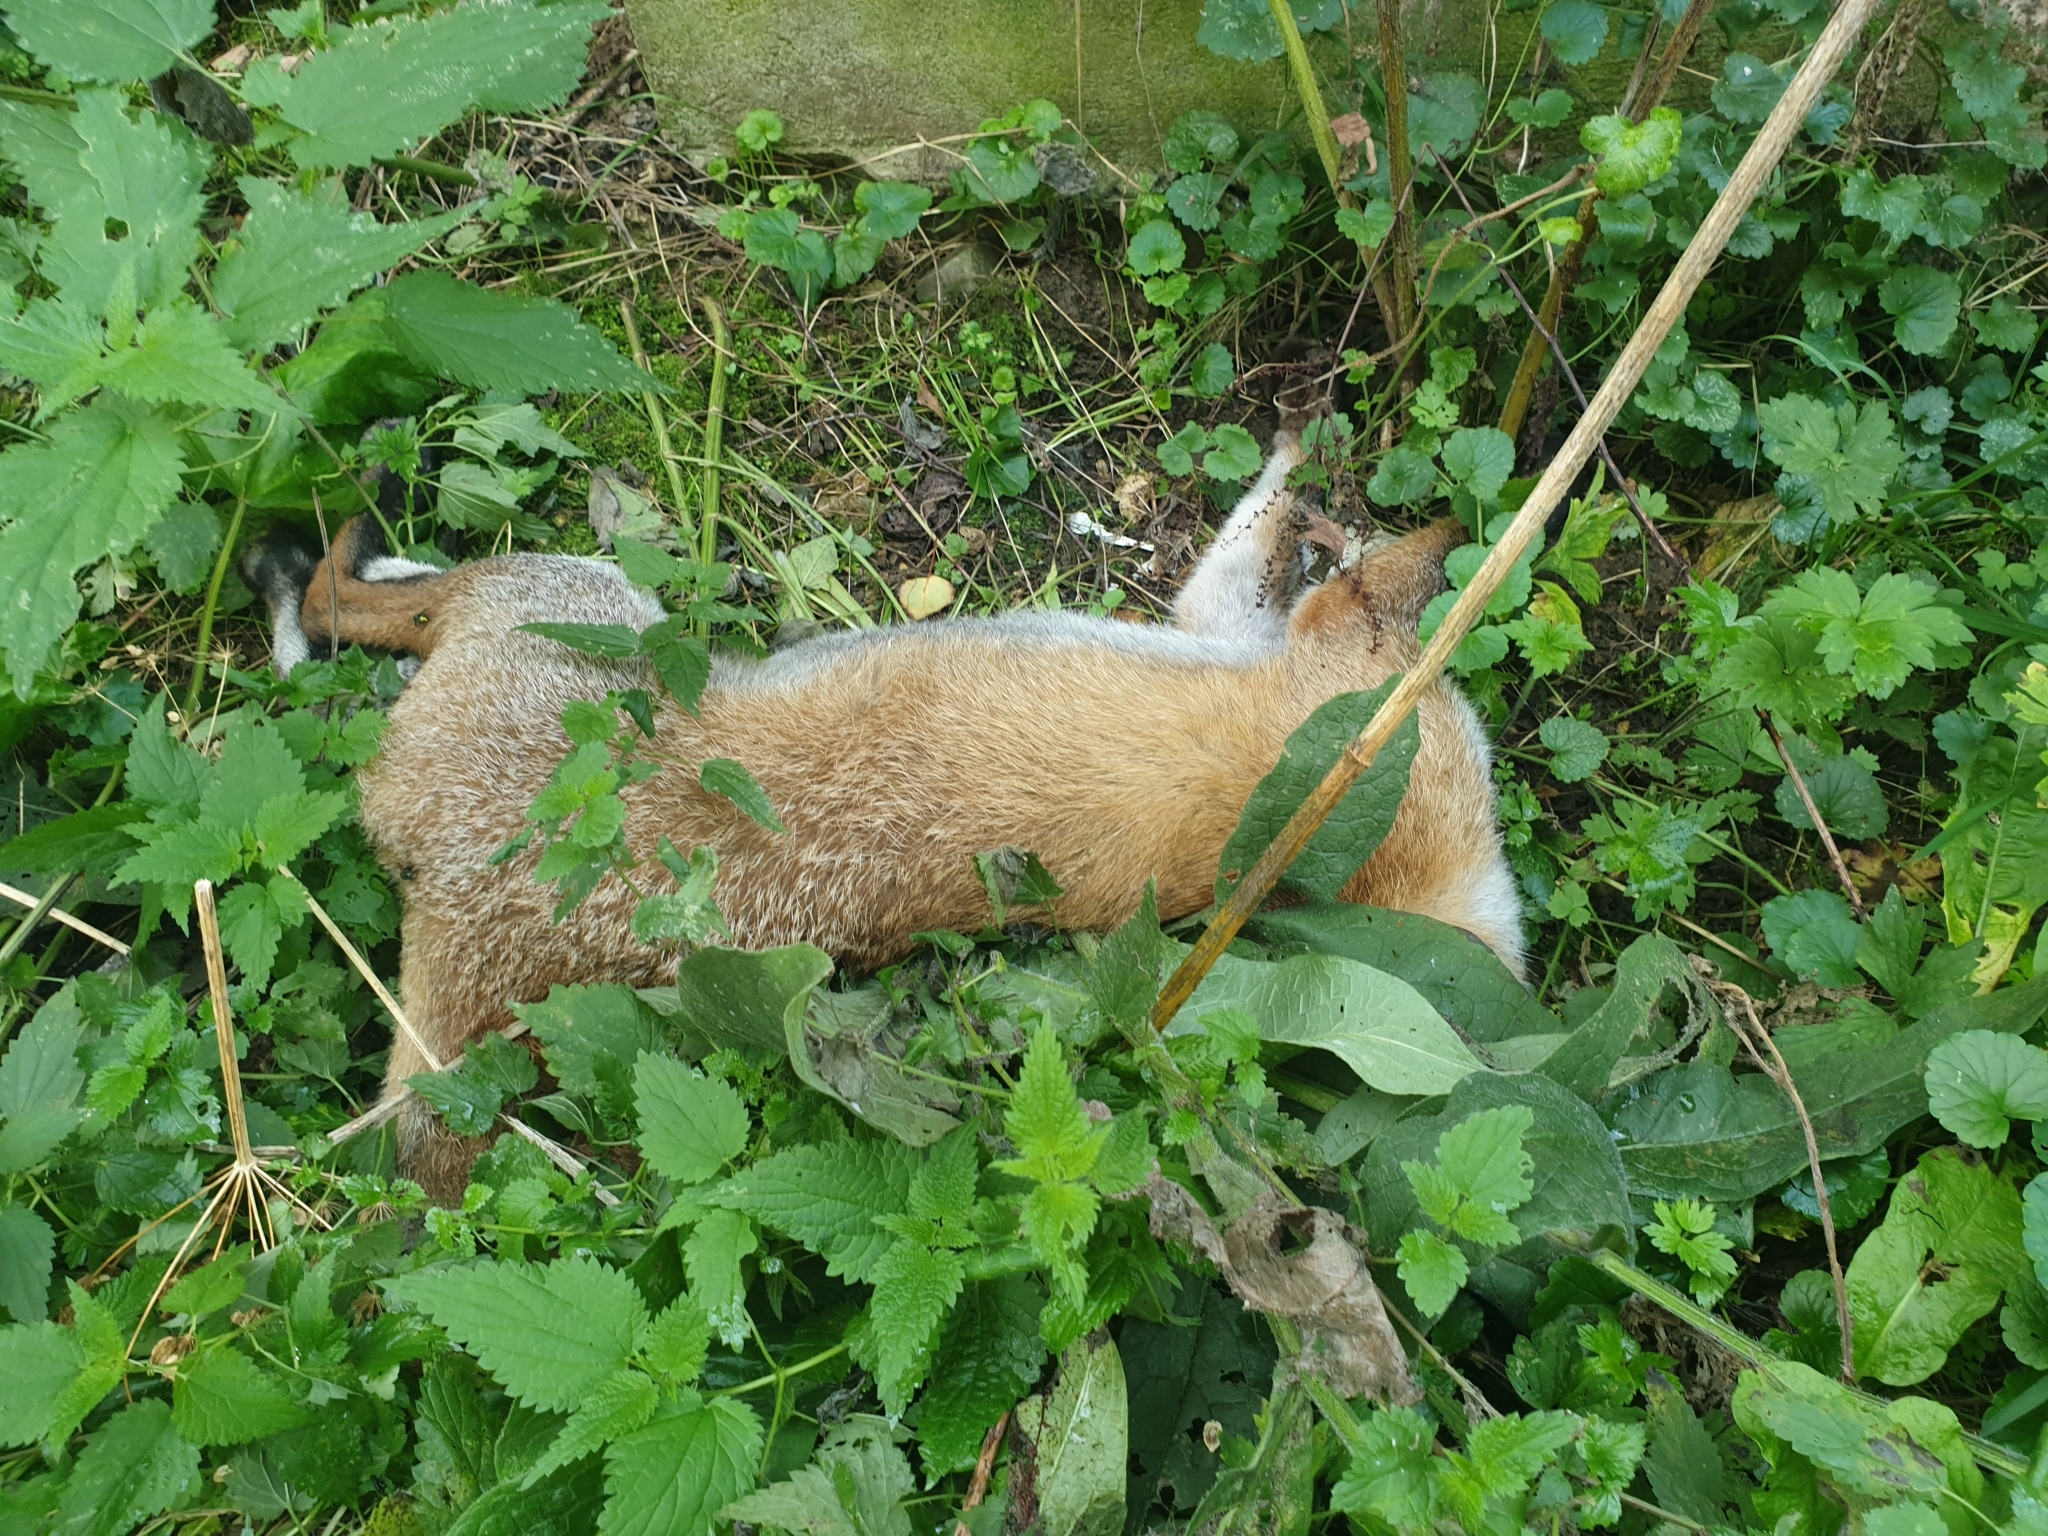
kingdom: Animalia
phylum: Chordata
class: Mammalia
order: Carnivora
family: Canidae
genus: Vulpes
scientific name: Vulpes vulpes
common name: Red fox
